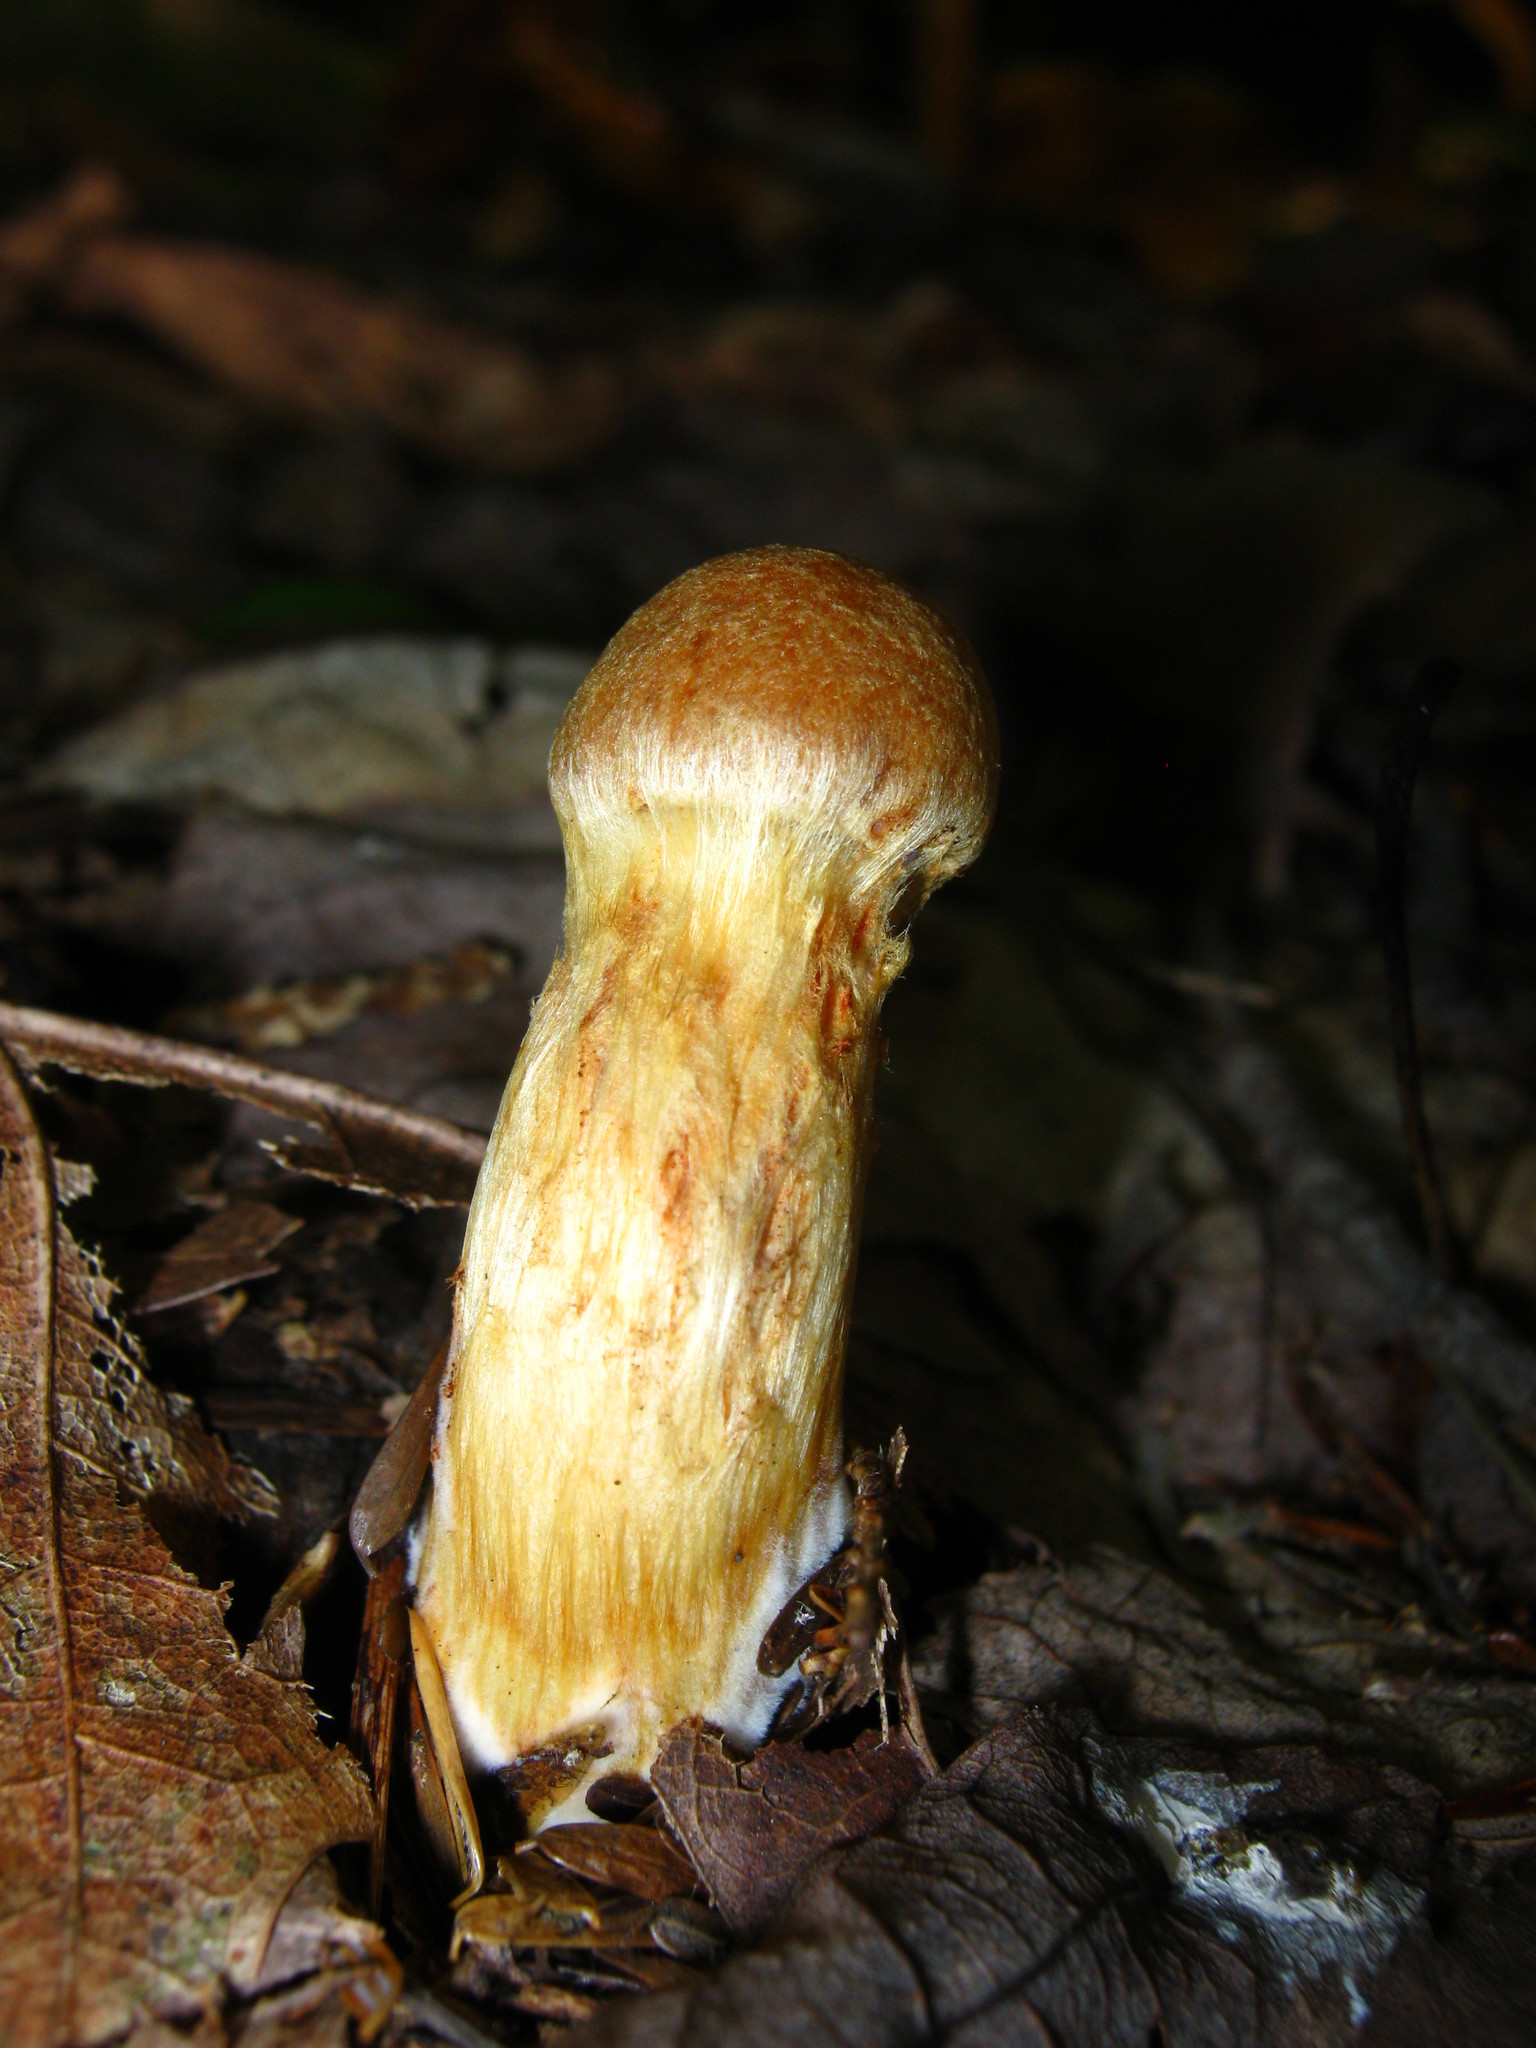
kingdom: Fungi
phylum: Basidiomycota
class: Agaricomycetes
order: Agaricales
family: Cortinariaceae
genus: Aureonarius
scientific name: Aureonarius limonius
